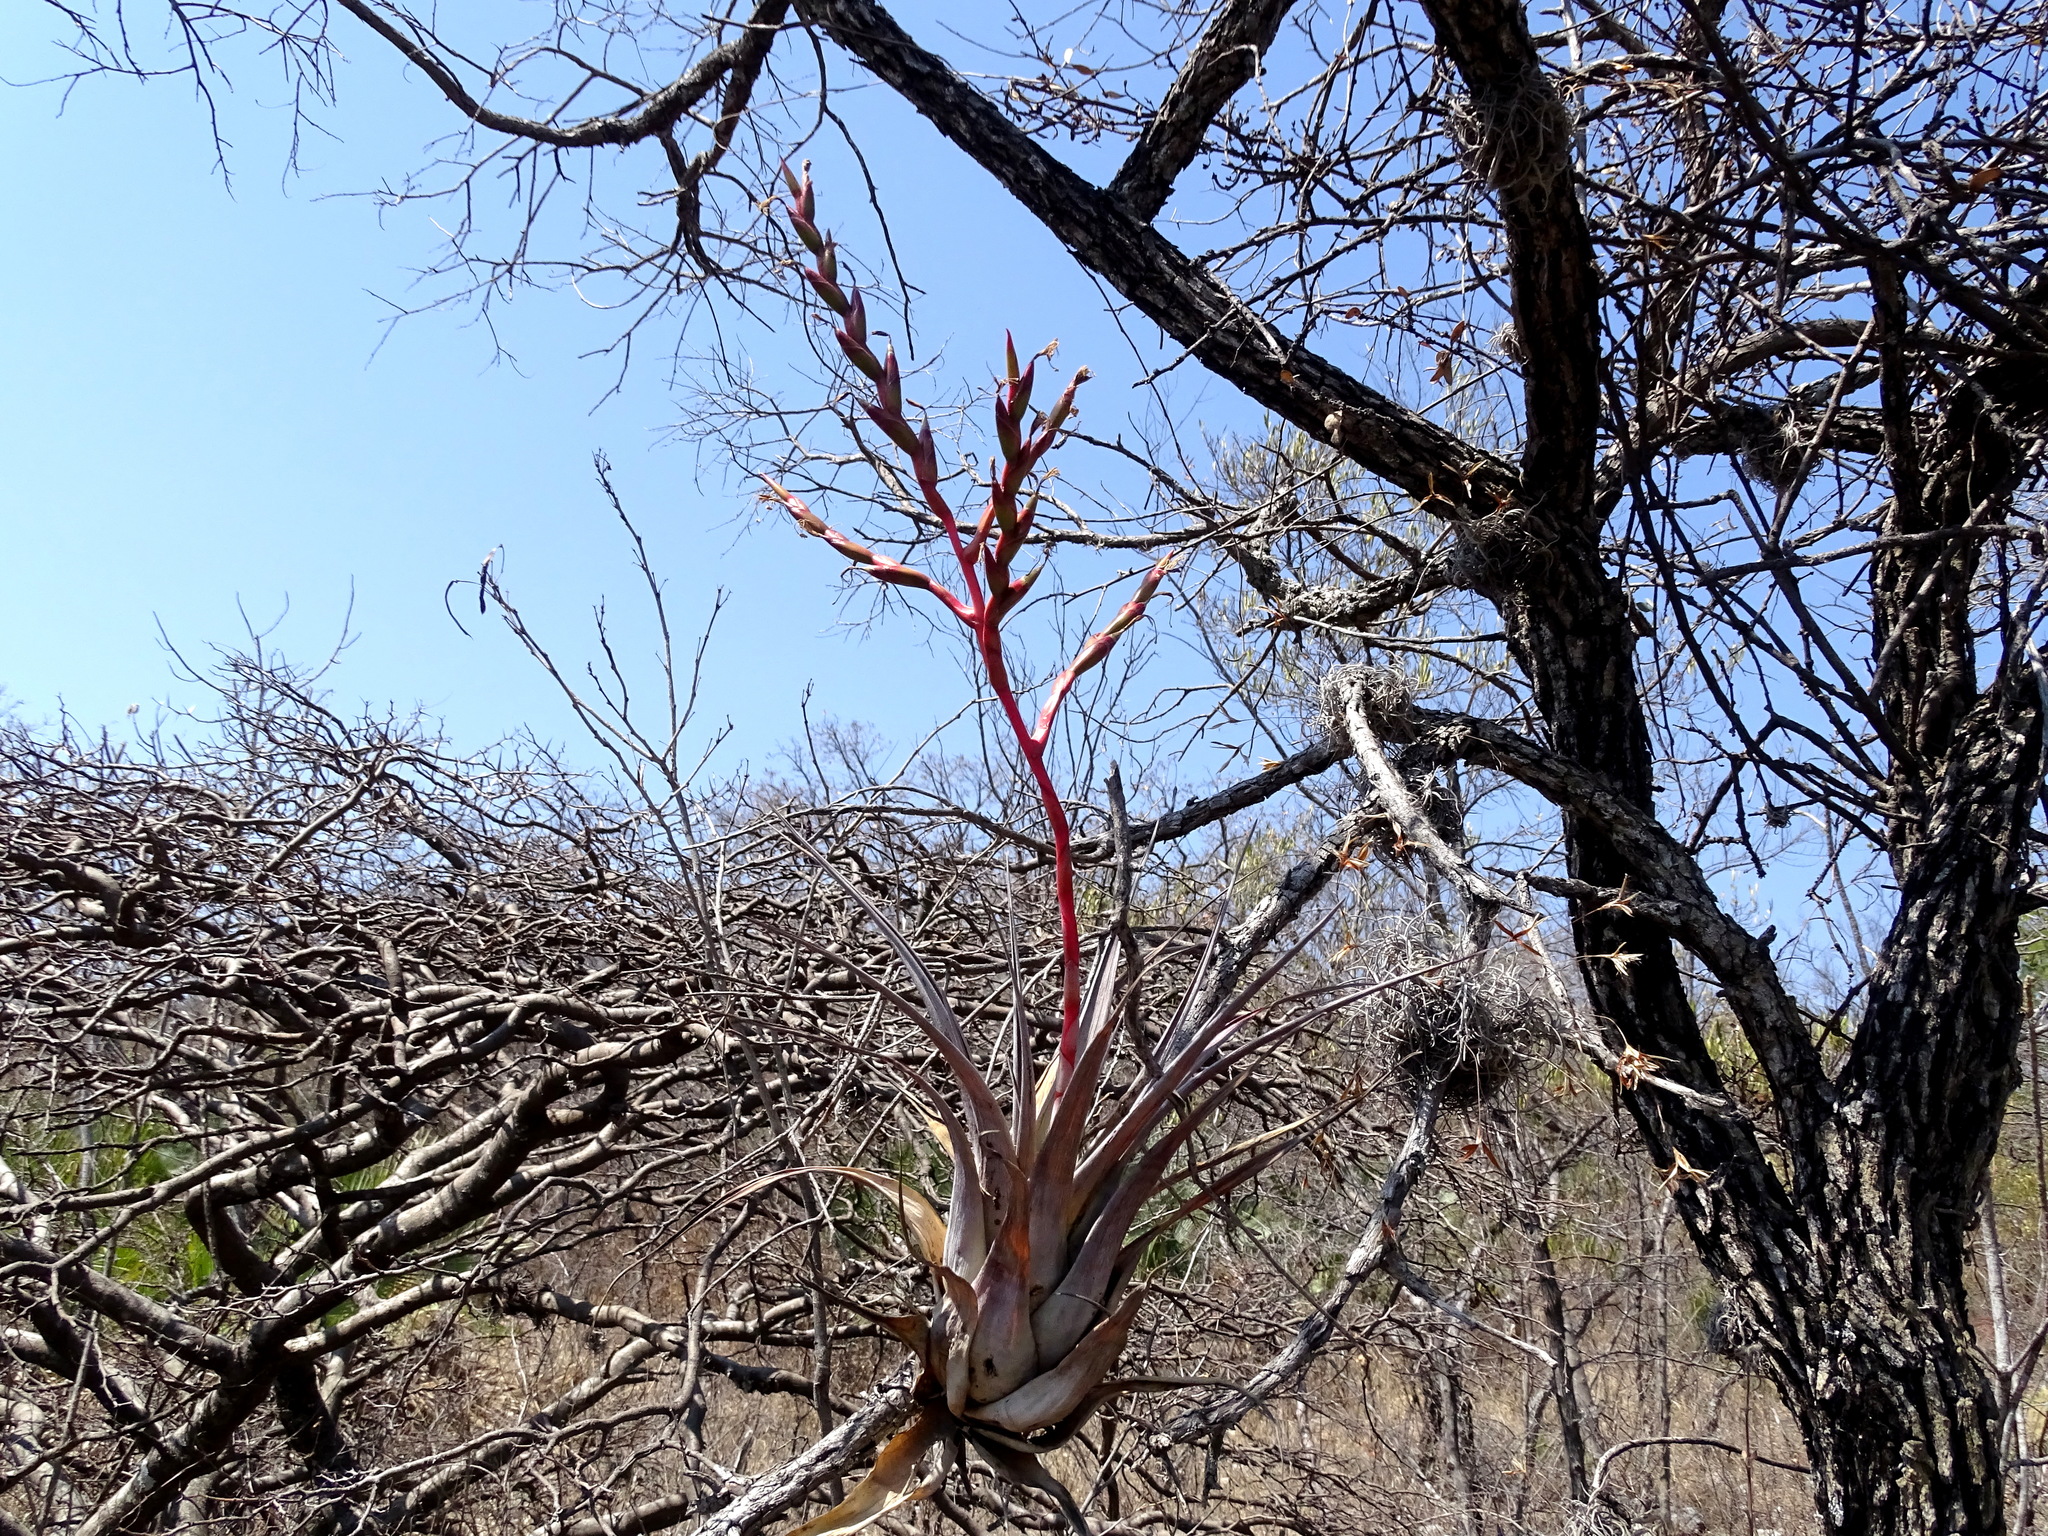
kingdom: Plantae
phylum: Tracheophyta
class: Liliopsida
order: Poales
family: Bromeliaceae
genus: Tillandsia
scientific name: Tillandsia tehuacana
